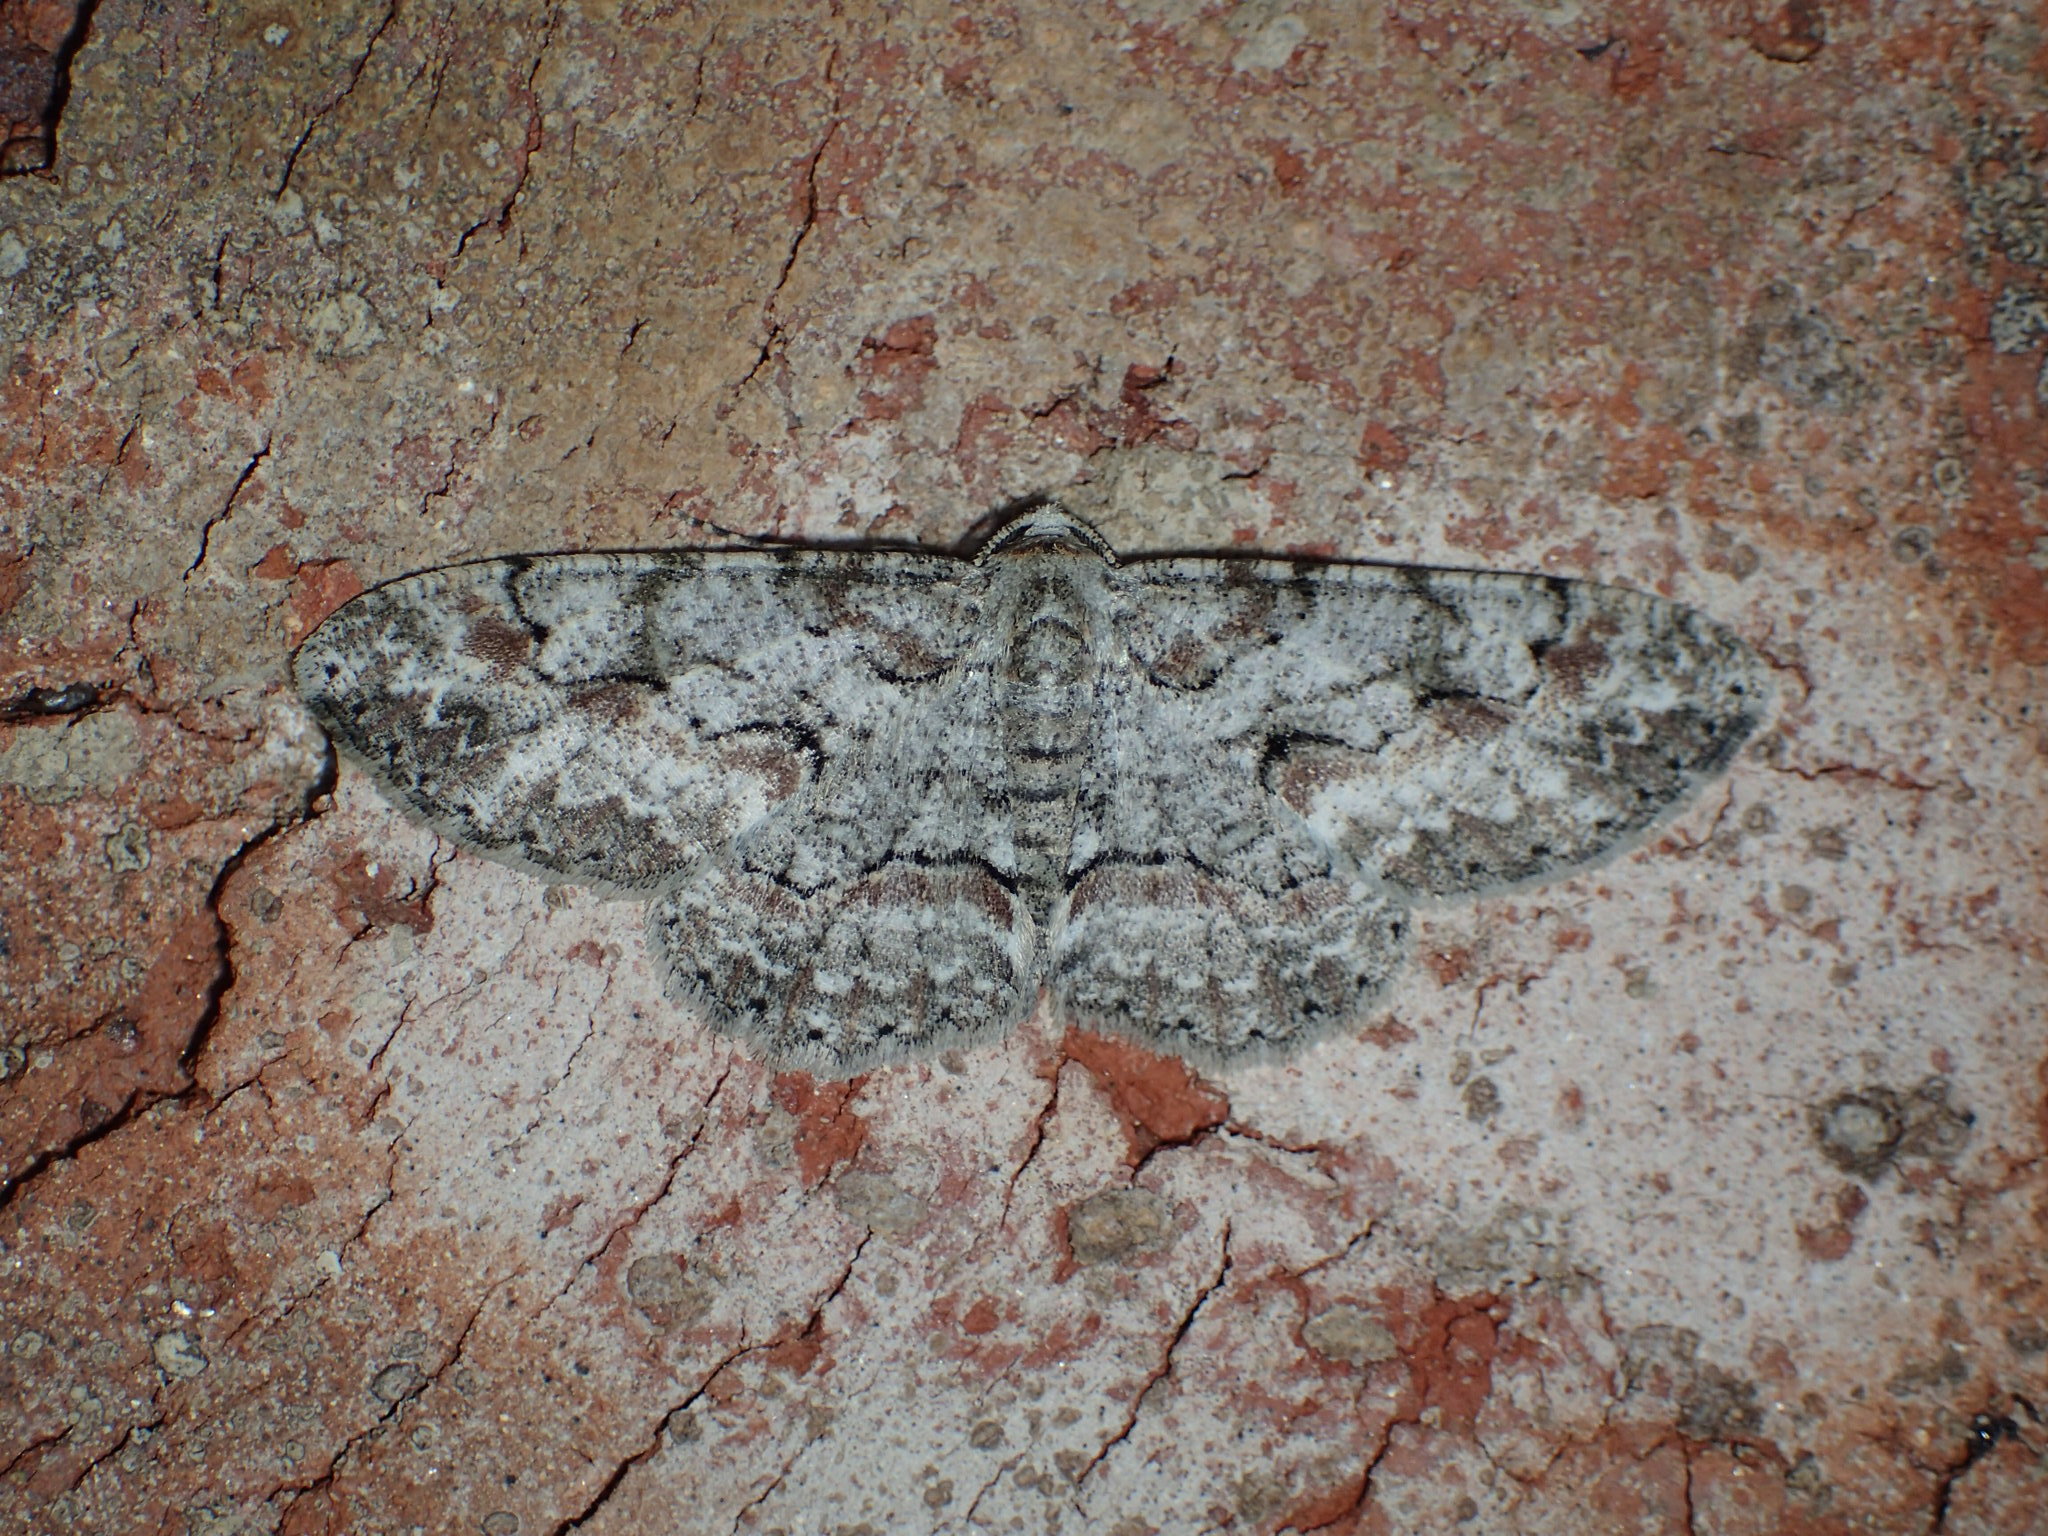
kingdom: Animalia
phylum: Arthropoda
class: Insecta
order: Lepidoptera
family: Geometridae
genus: Iridopsis
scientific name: Iridopsis defectaria
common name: Brown-shaded gray
